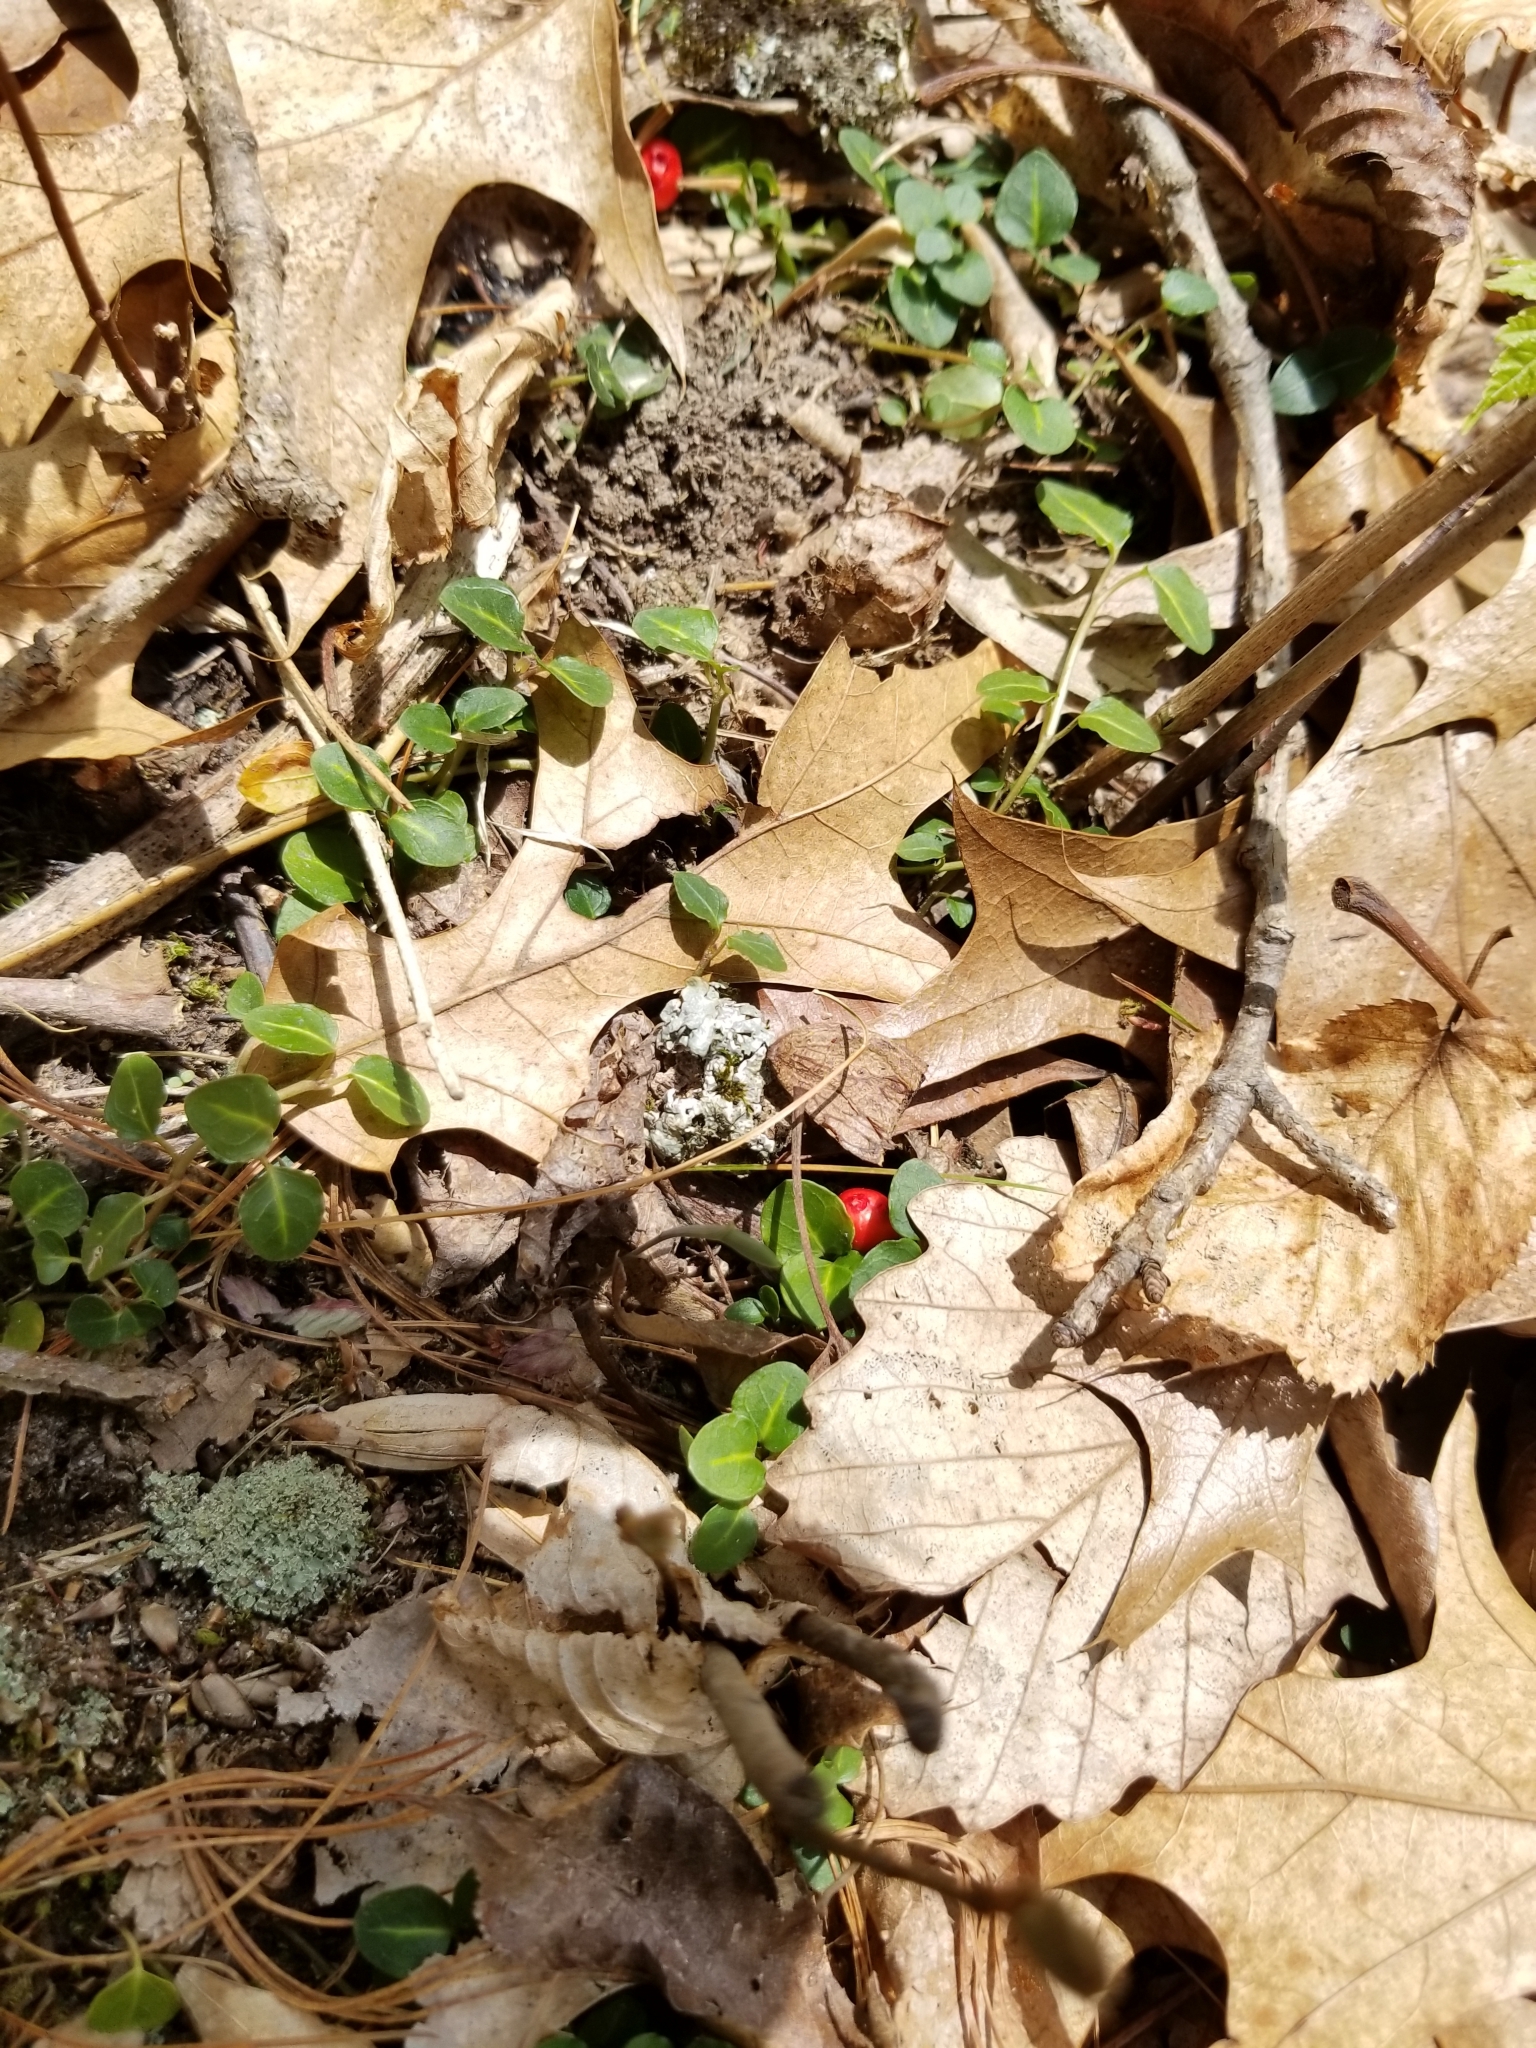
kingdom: Plantae
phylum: Tracheophyta
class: Magnoliopsida
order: Gentianales
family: Rubiaceae
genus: Mitchella
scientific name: Mitchella repens
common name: Partridge-berry
